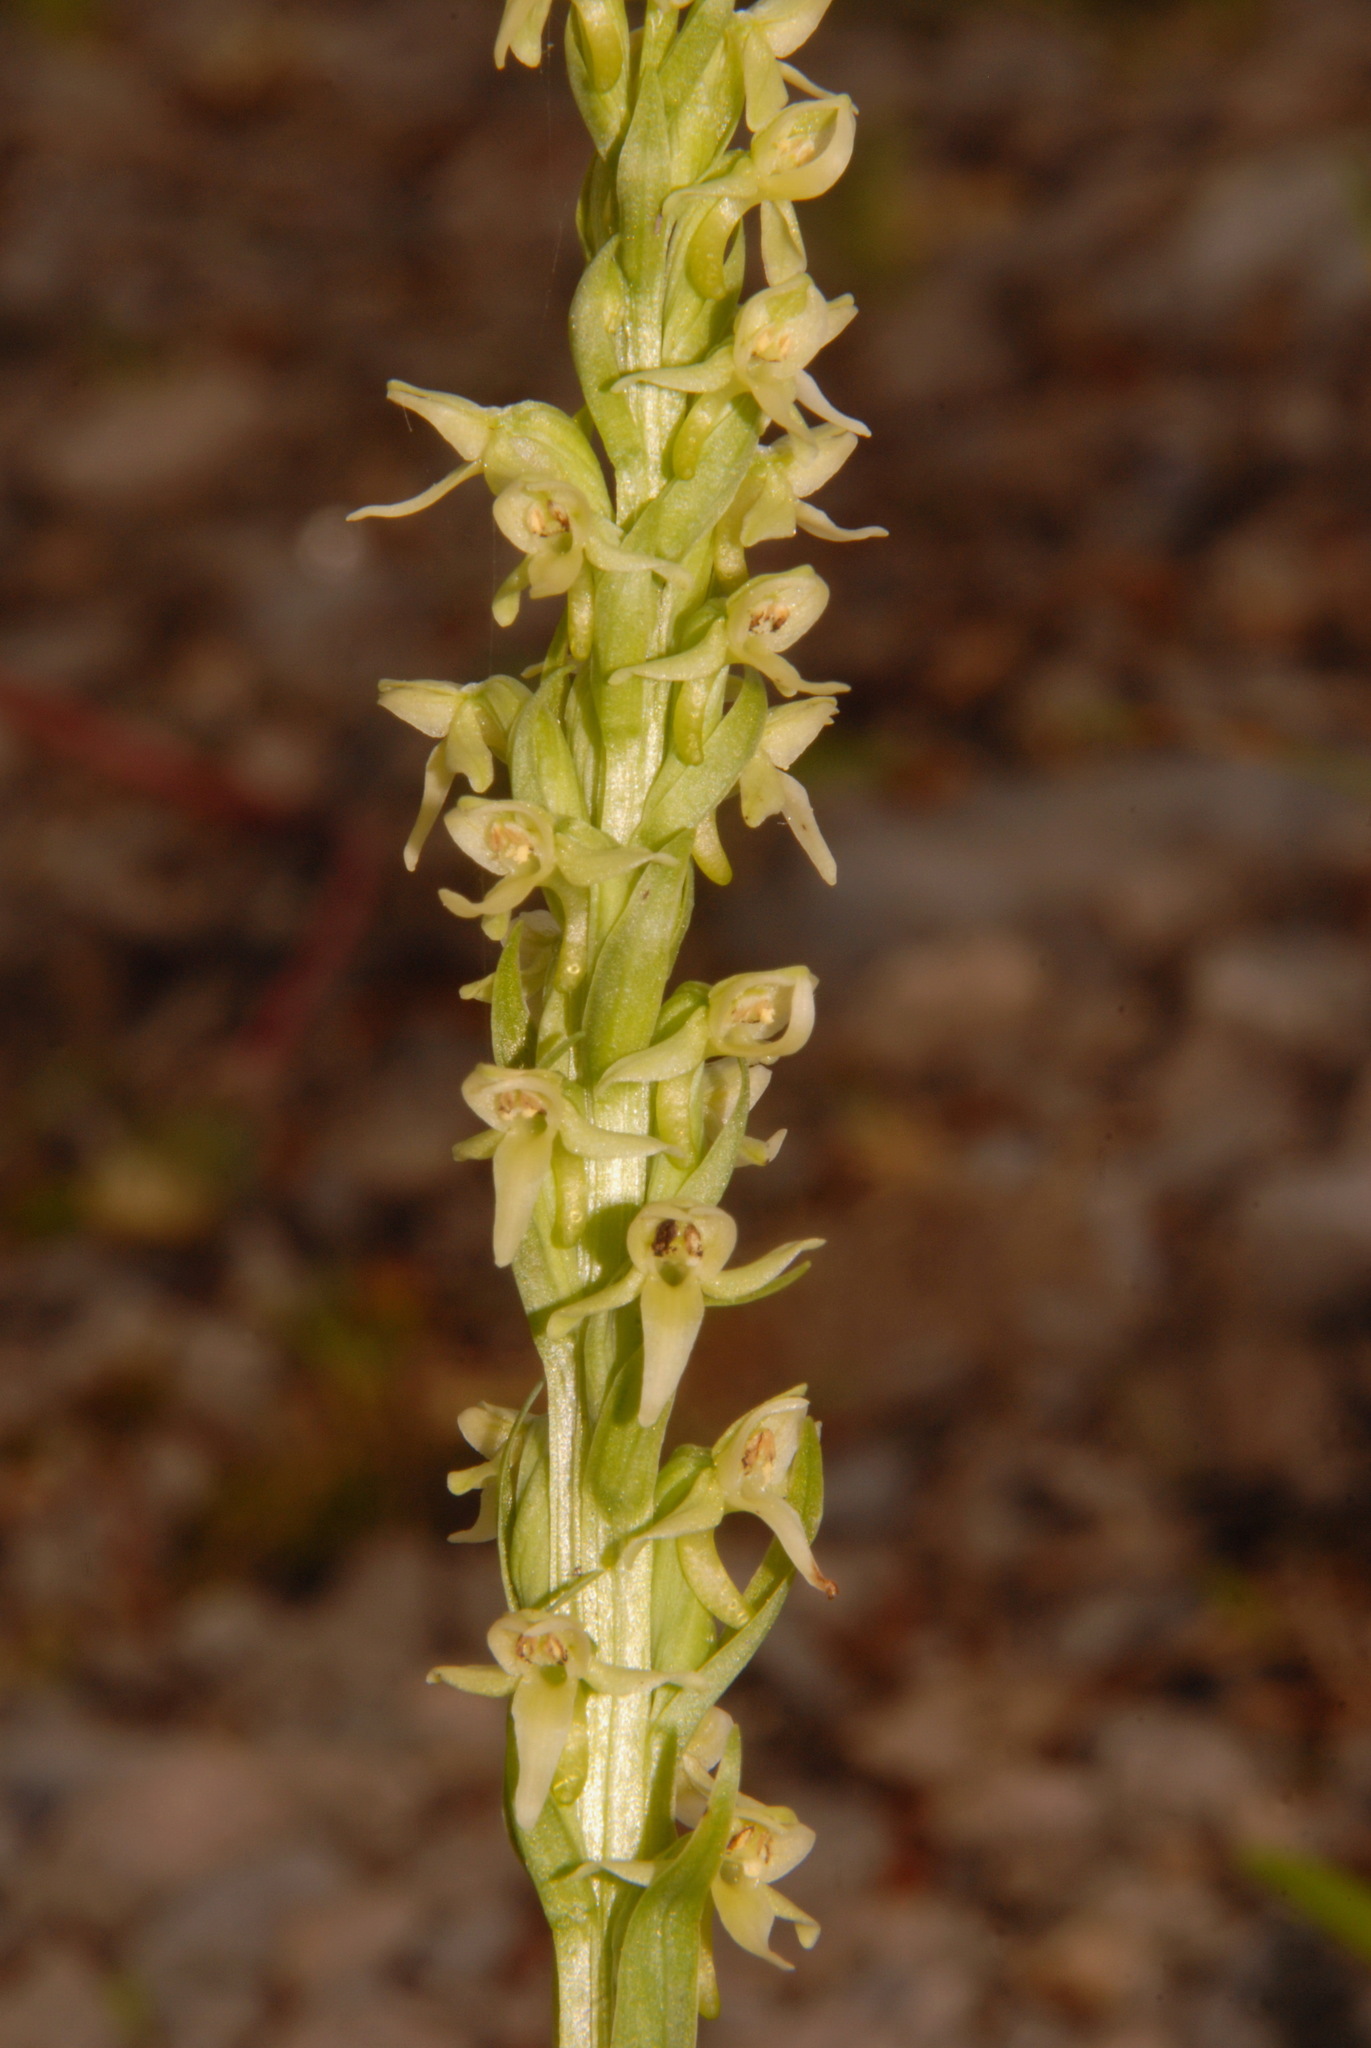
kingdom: Plantae
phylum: Tracheophyta
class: Liliopsida
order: Asparagales
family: Orchidaceae
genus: Platanthera
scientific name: Platanthera huronensis
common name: Fragrant green orchid
